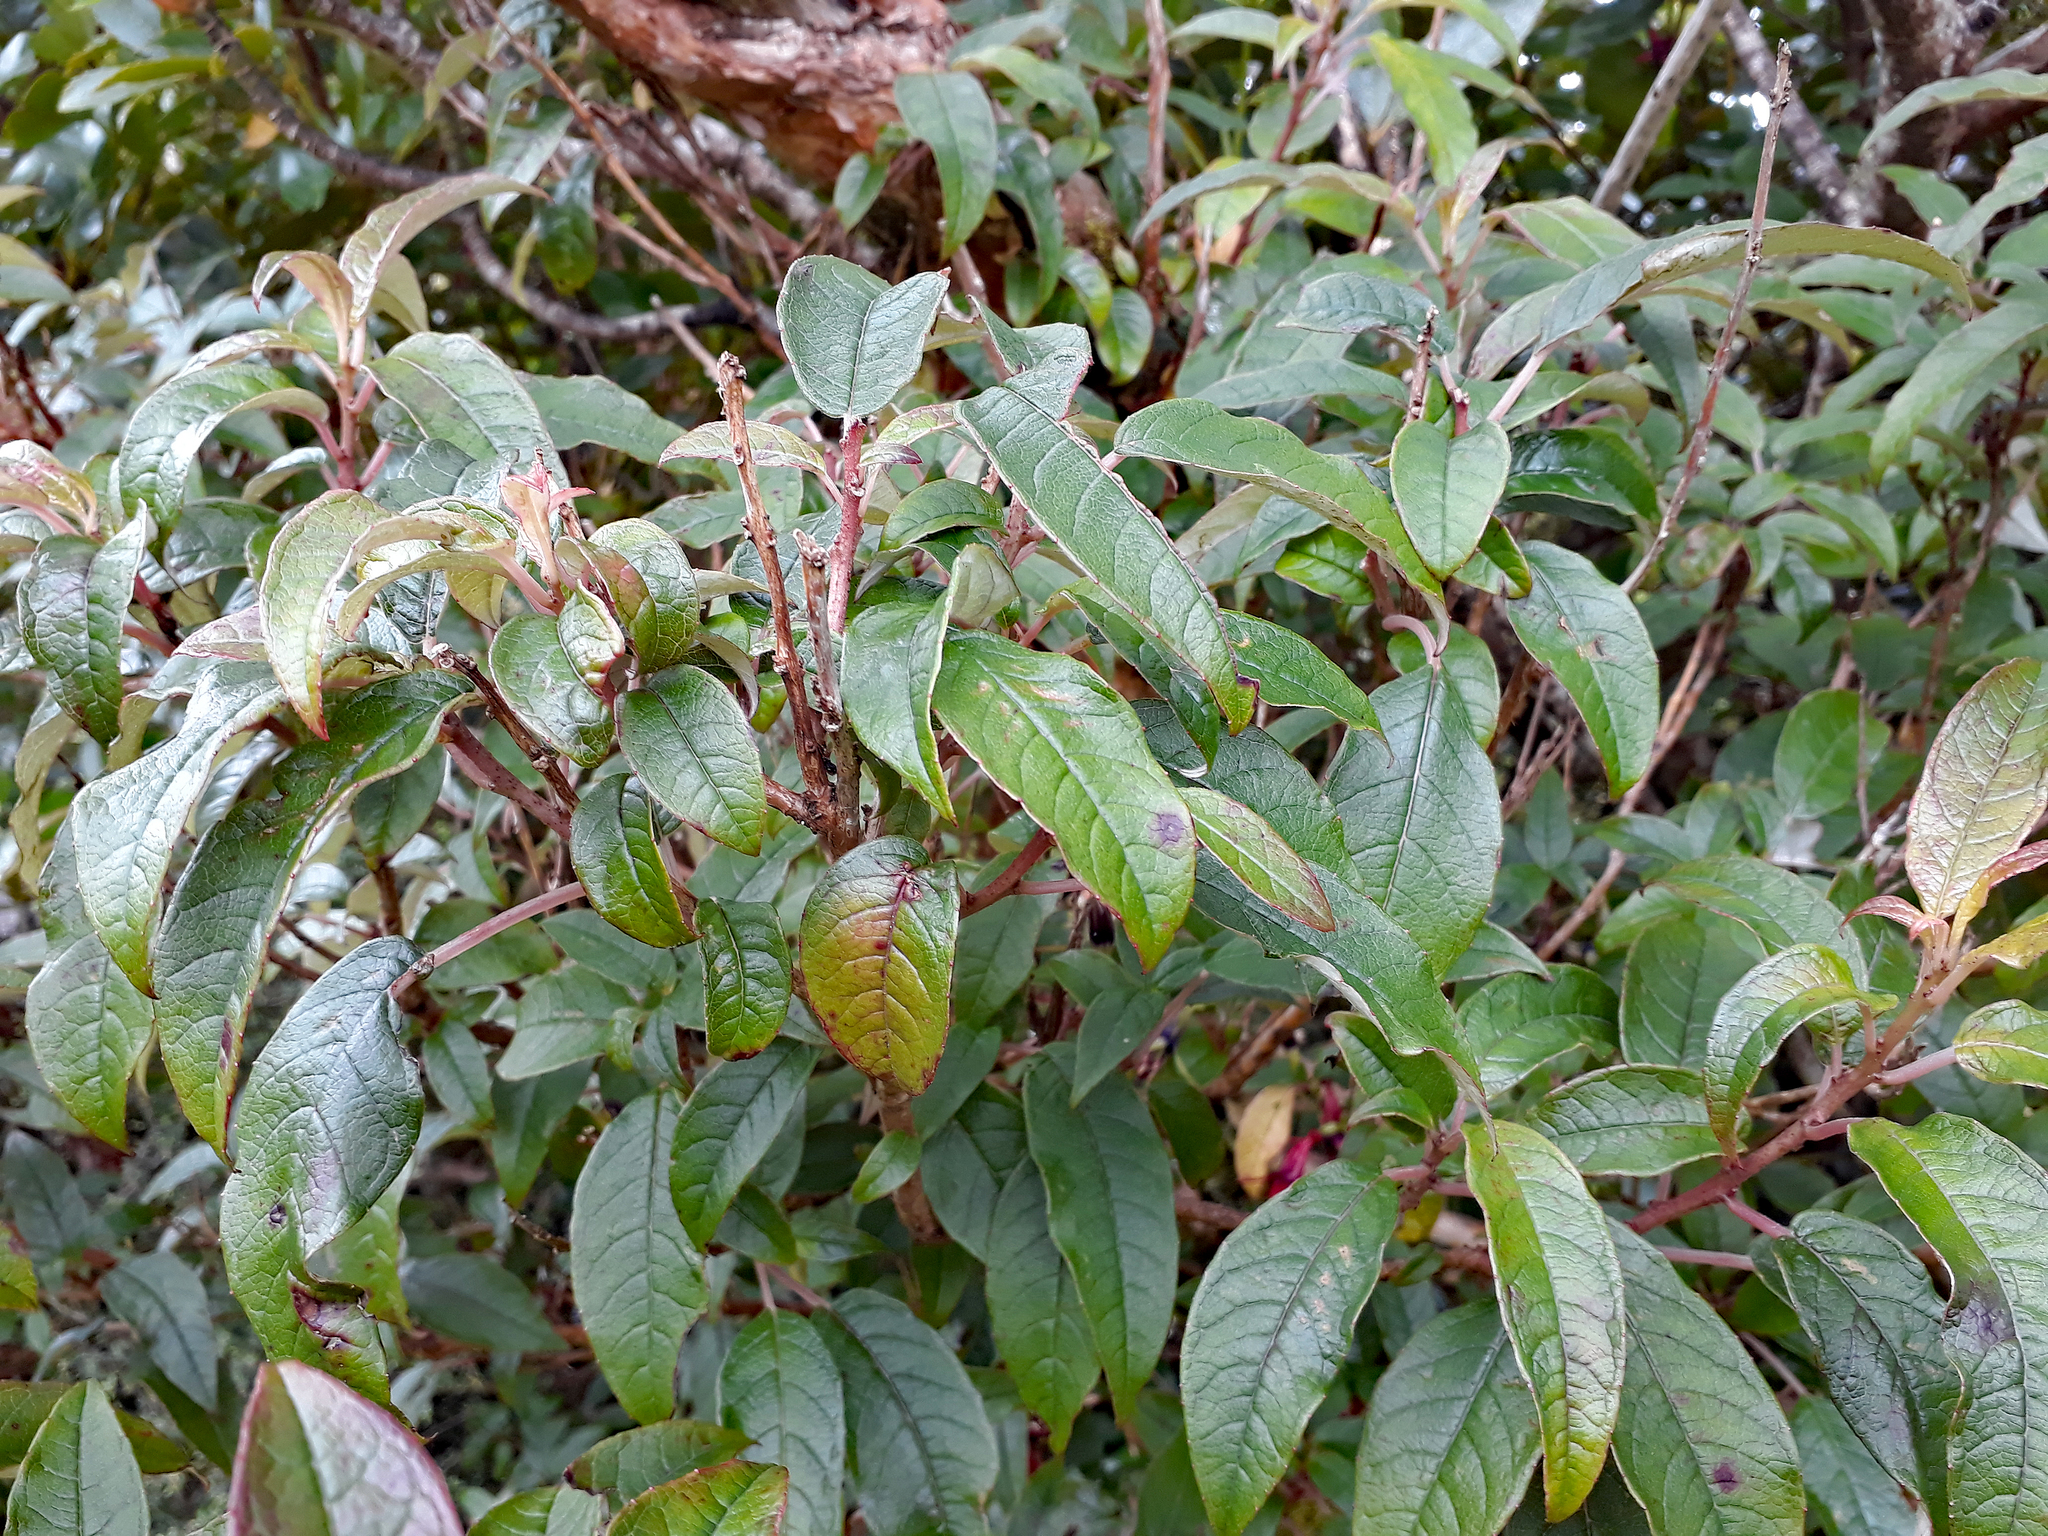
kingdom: Plantae
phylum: Tracheophyta
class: Magnoliopsida
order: Myrtales
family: Onagraceae
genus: Fuchsia
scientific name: Fuchsia excorticata
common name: Tree fuchsia
